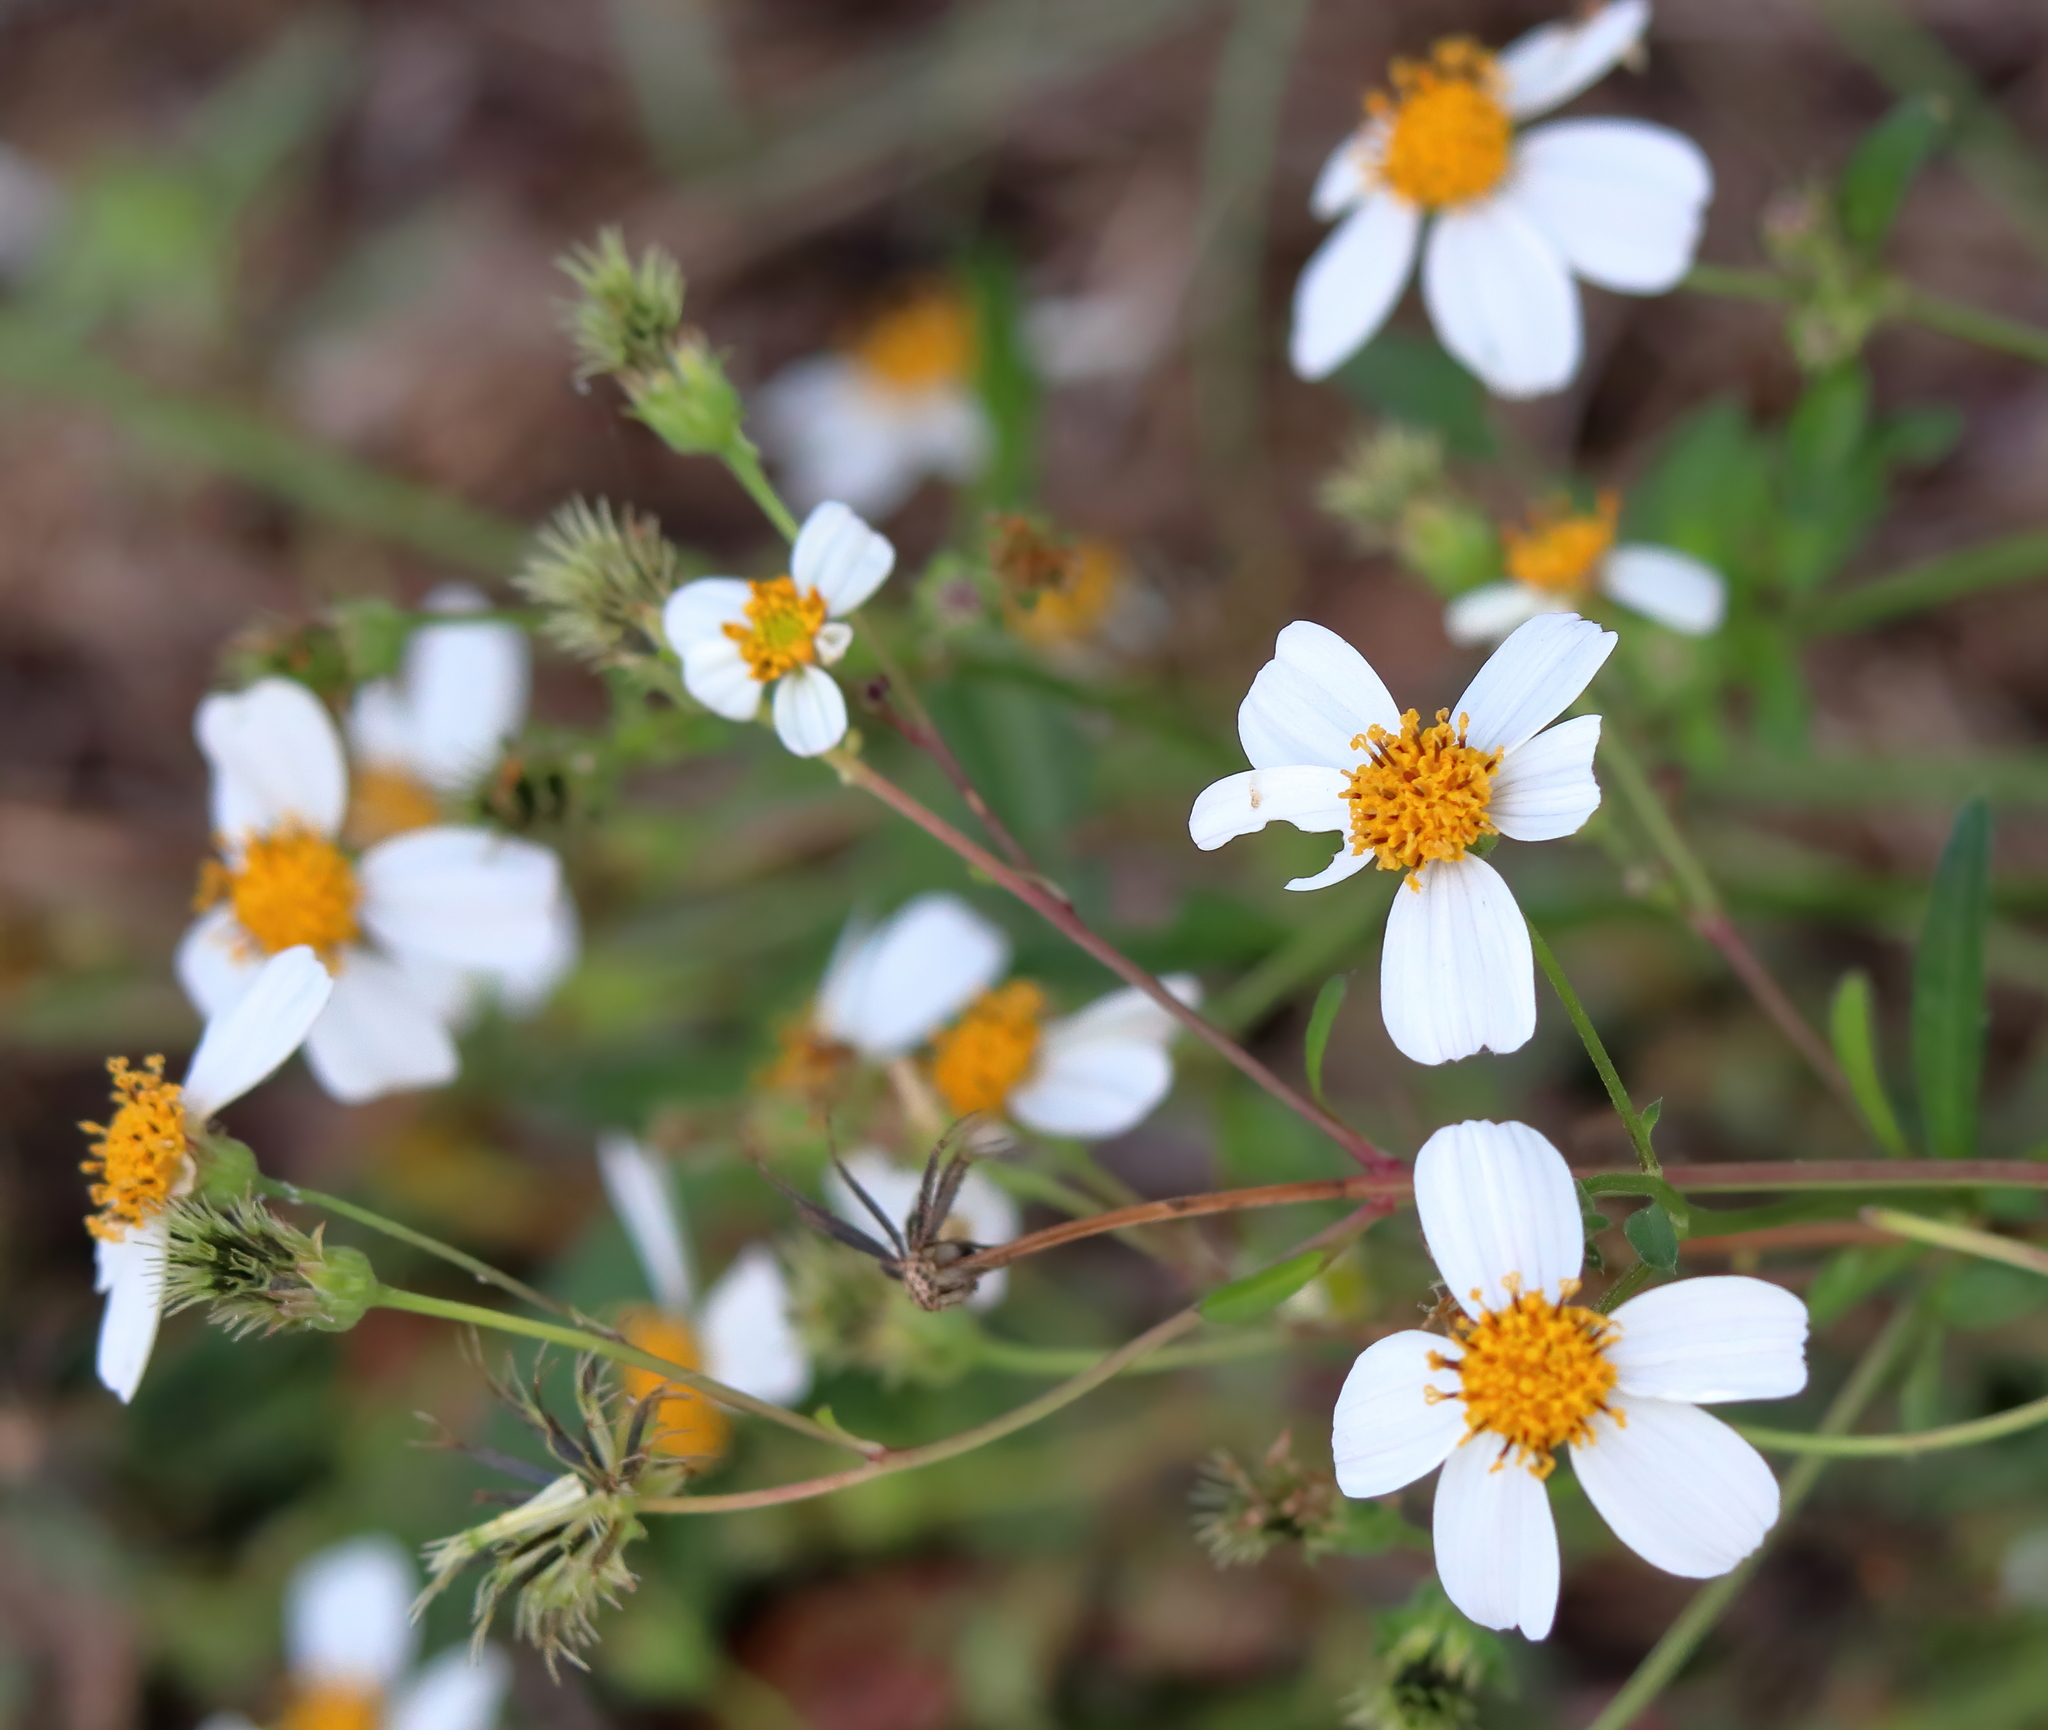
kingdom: Plantae
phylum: Tracheophyta
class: Magnoliopsida
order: Asterales
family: Asteraceae
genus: Bidens
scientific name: Bidens alba
